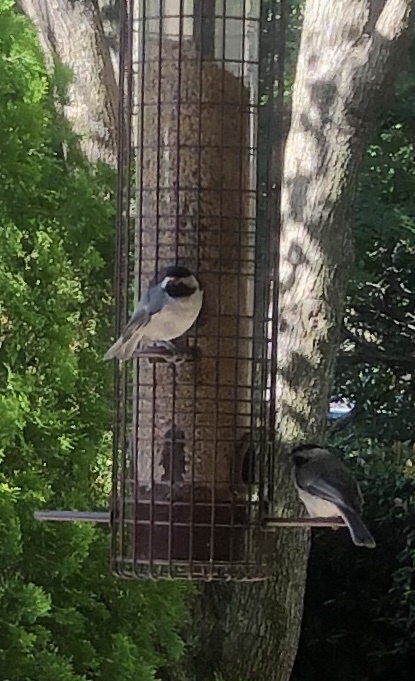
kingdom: Animalia
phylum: Chordata
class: Aves
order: Passeriformes
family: Paridae
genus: Poecile
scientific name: Poecile carolinensis
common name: Carolina chickadee
